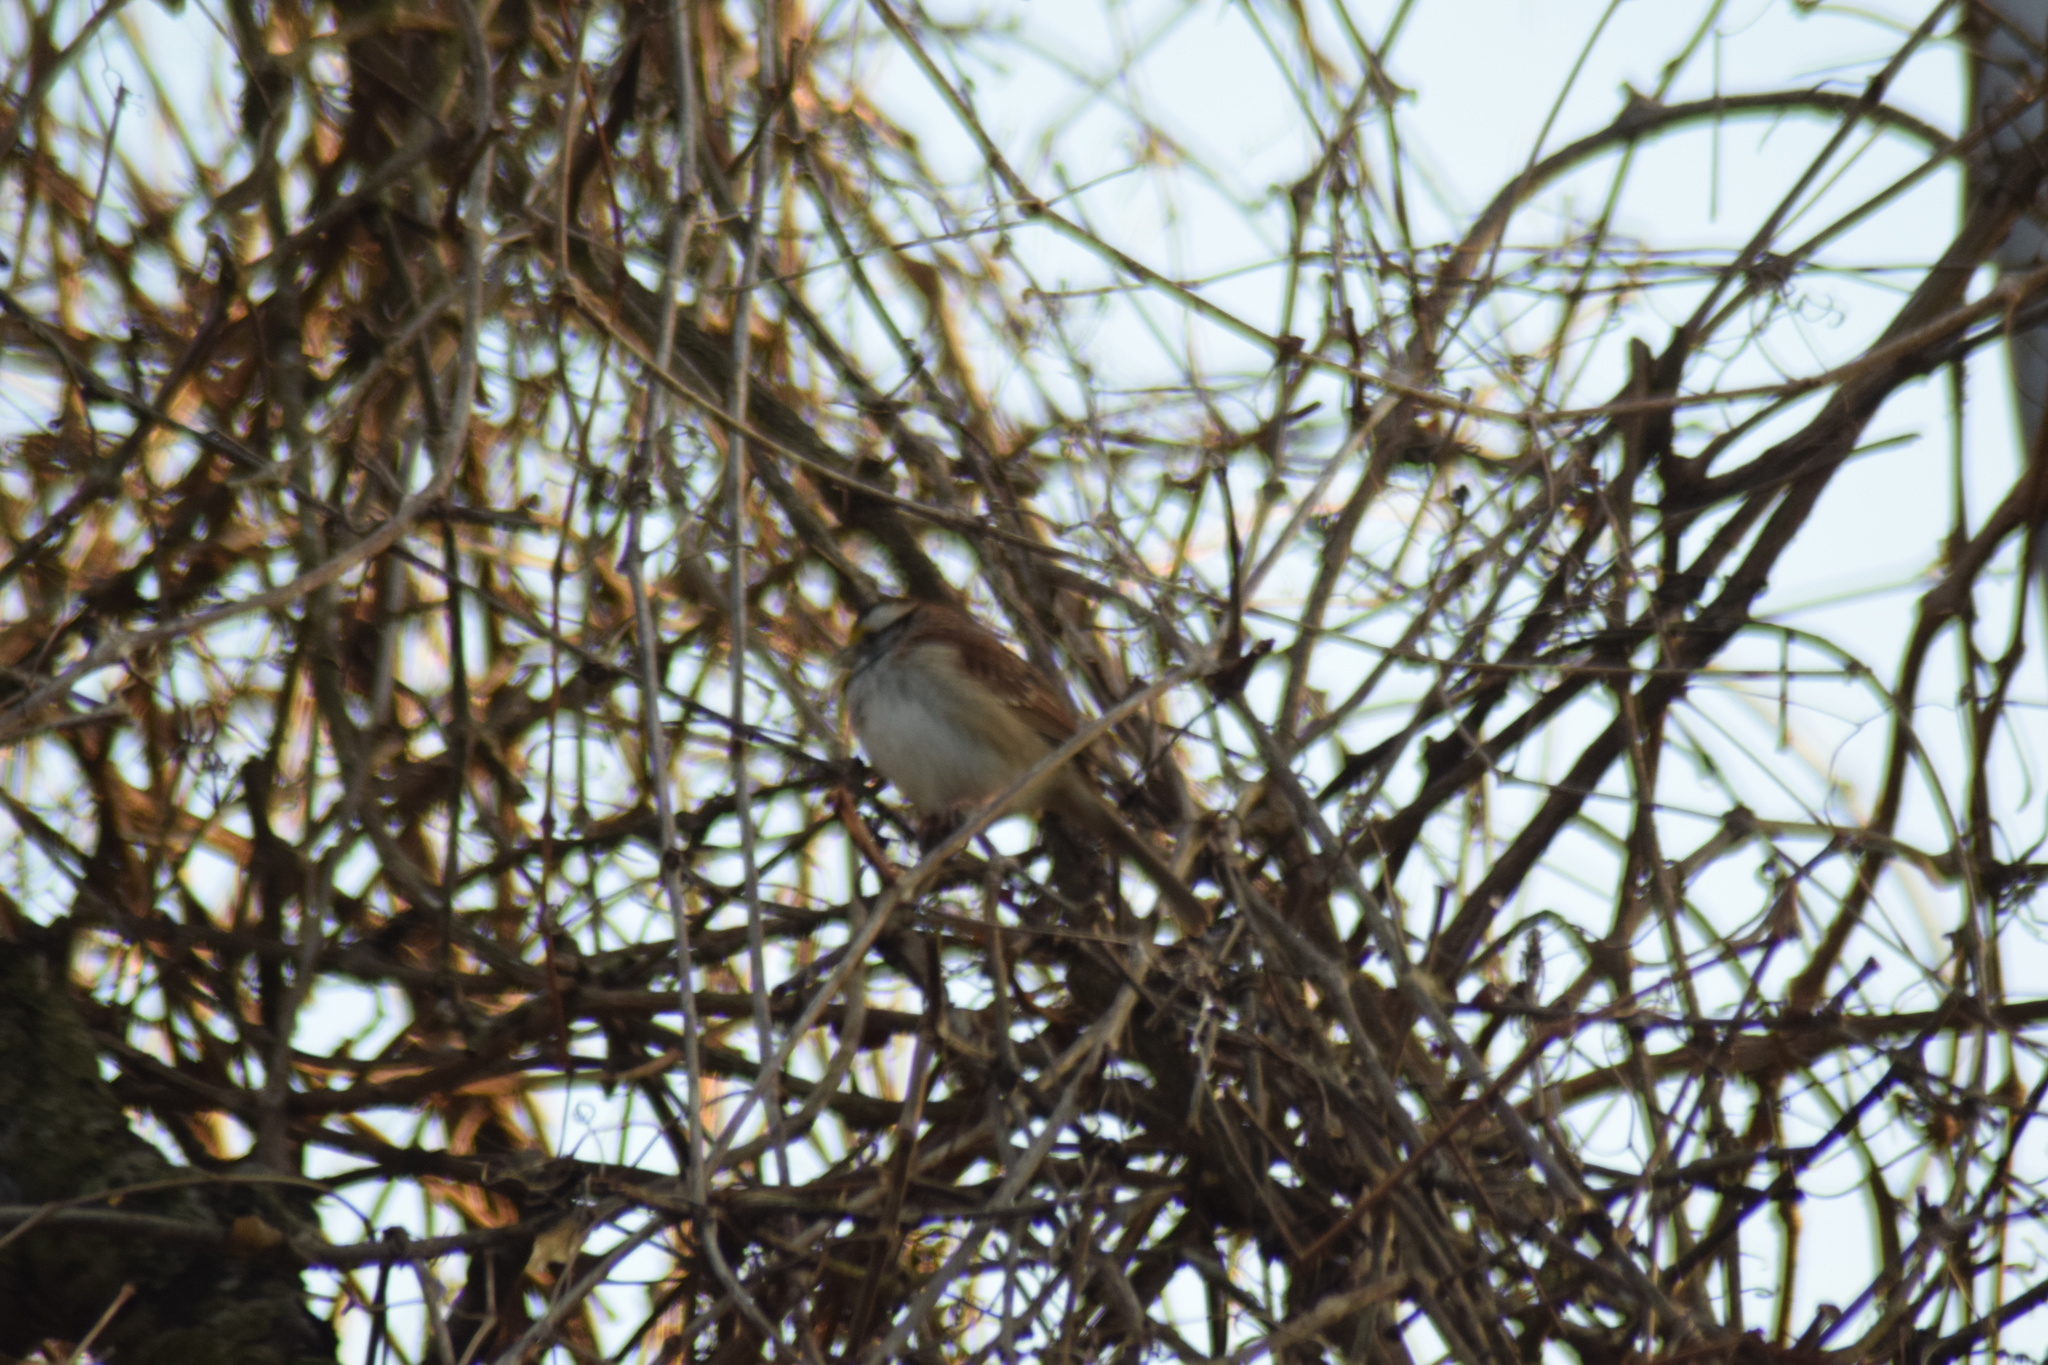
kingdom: Animalia
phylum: Chordata
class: Aves
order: Passeriformes
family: Passerellidae
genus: Zonotrichia
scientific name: Zonotrichia albicollis
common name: White-throated sparrow
